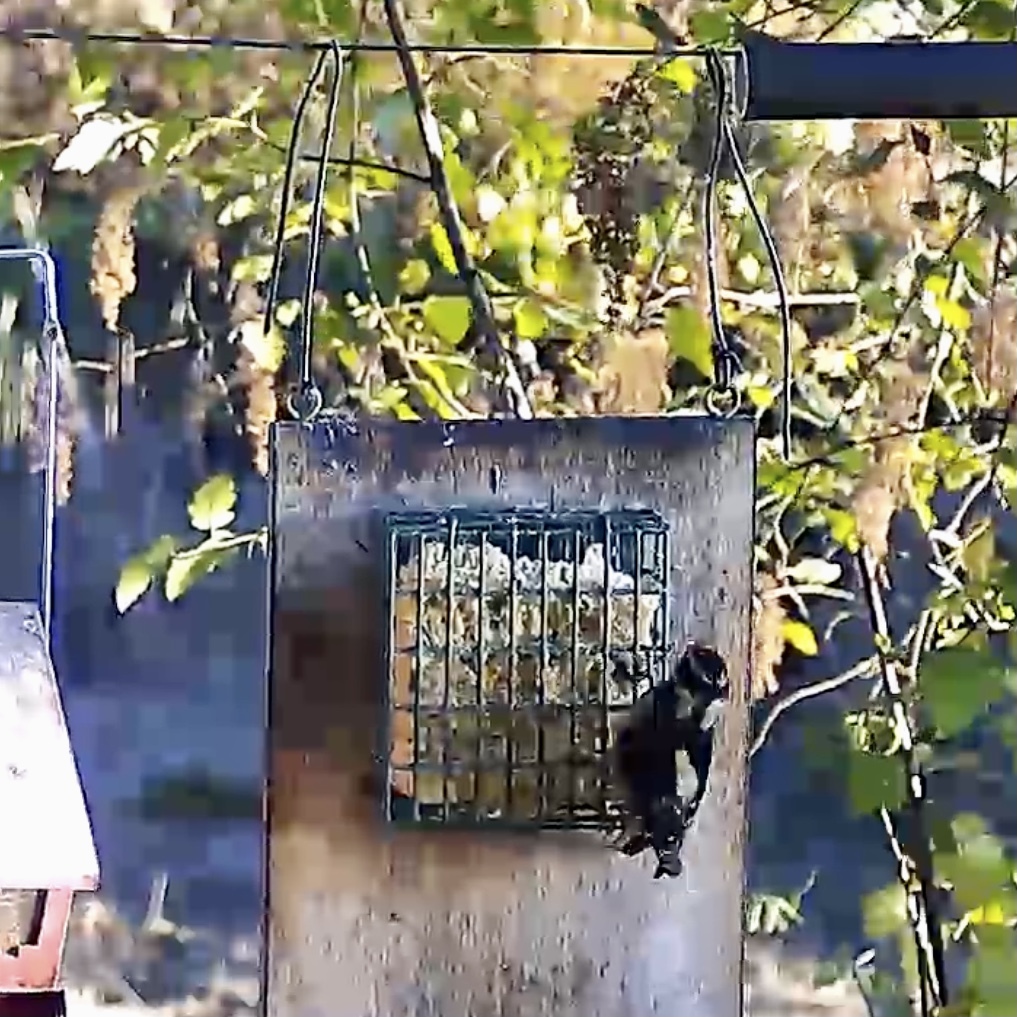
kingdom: Animalia
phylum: Chordata
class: Aves
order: Piciformes
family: Picidae
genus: Dryobates
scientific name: Dryobates pubescens
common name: Downy woodpecker
